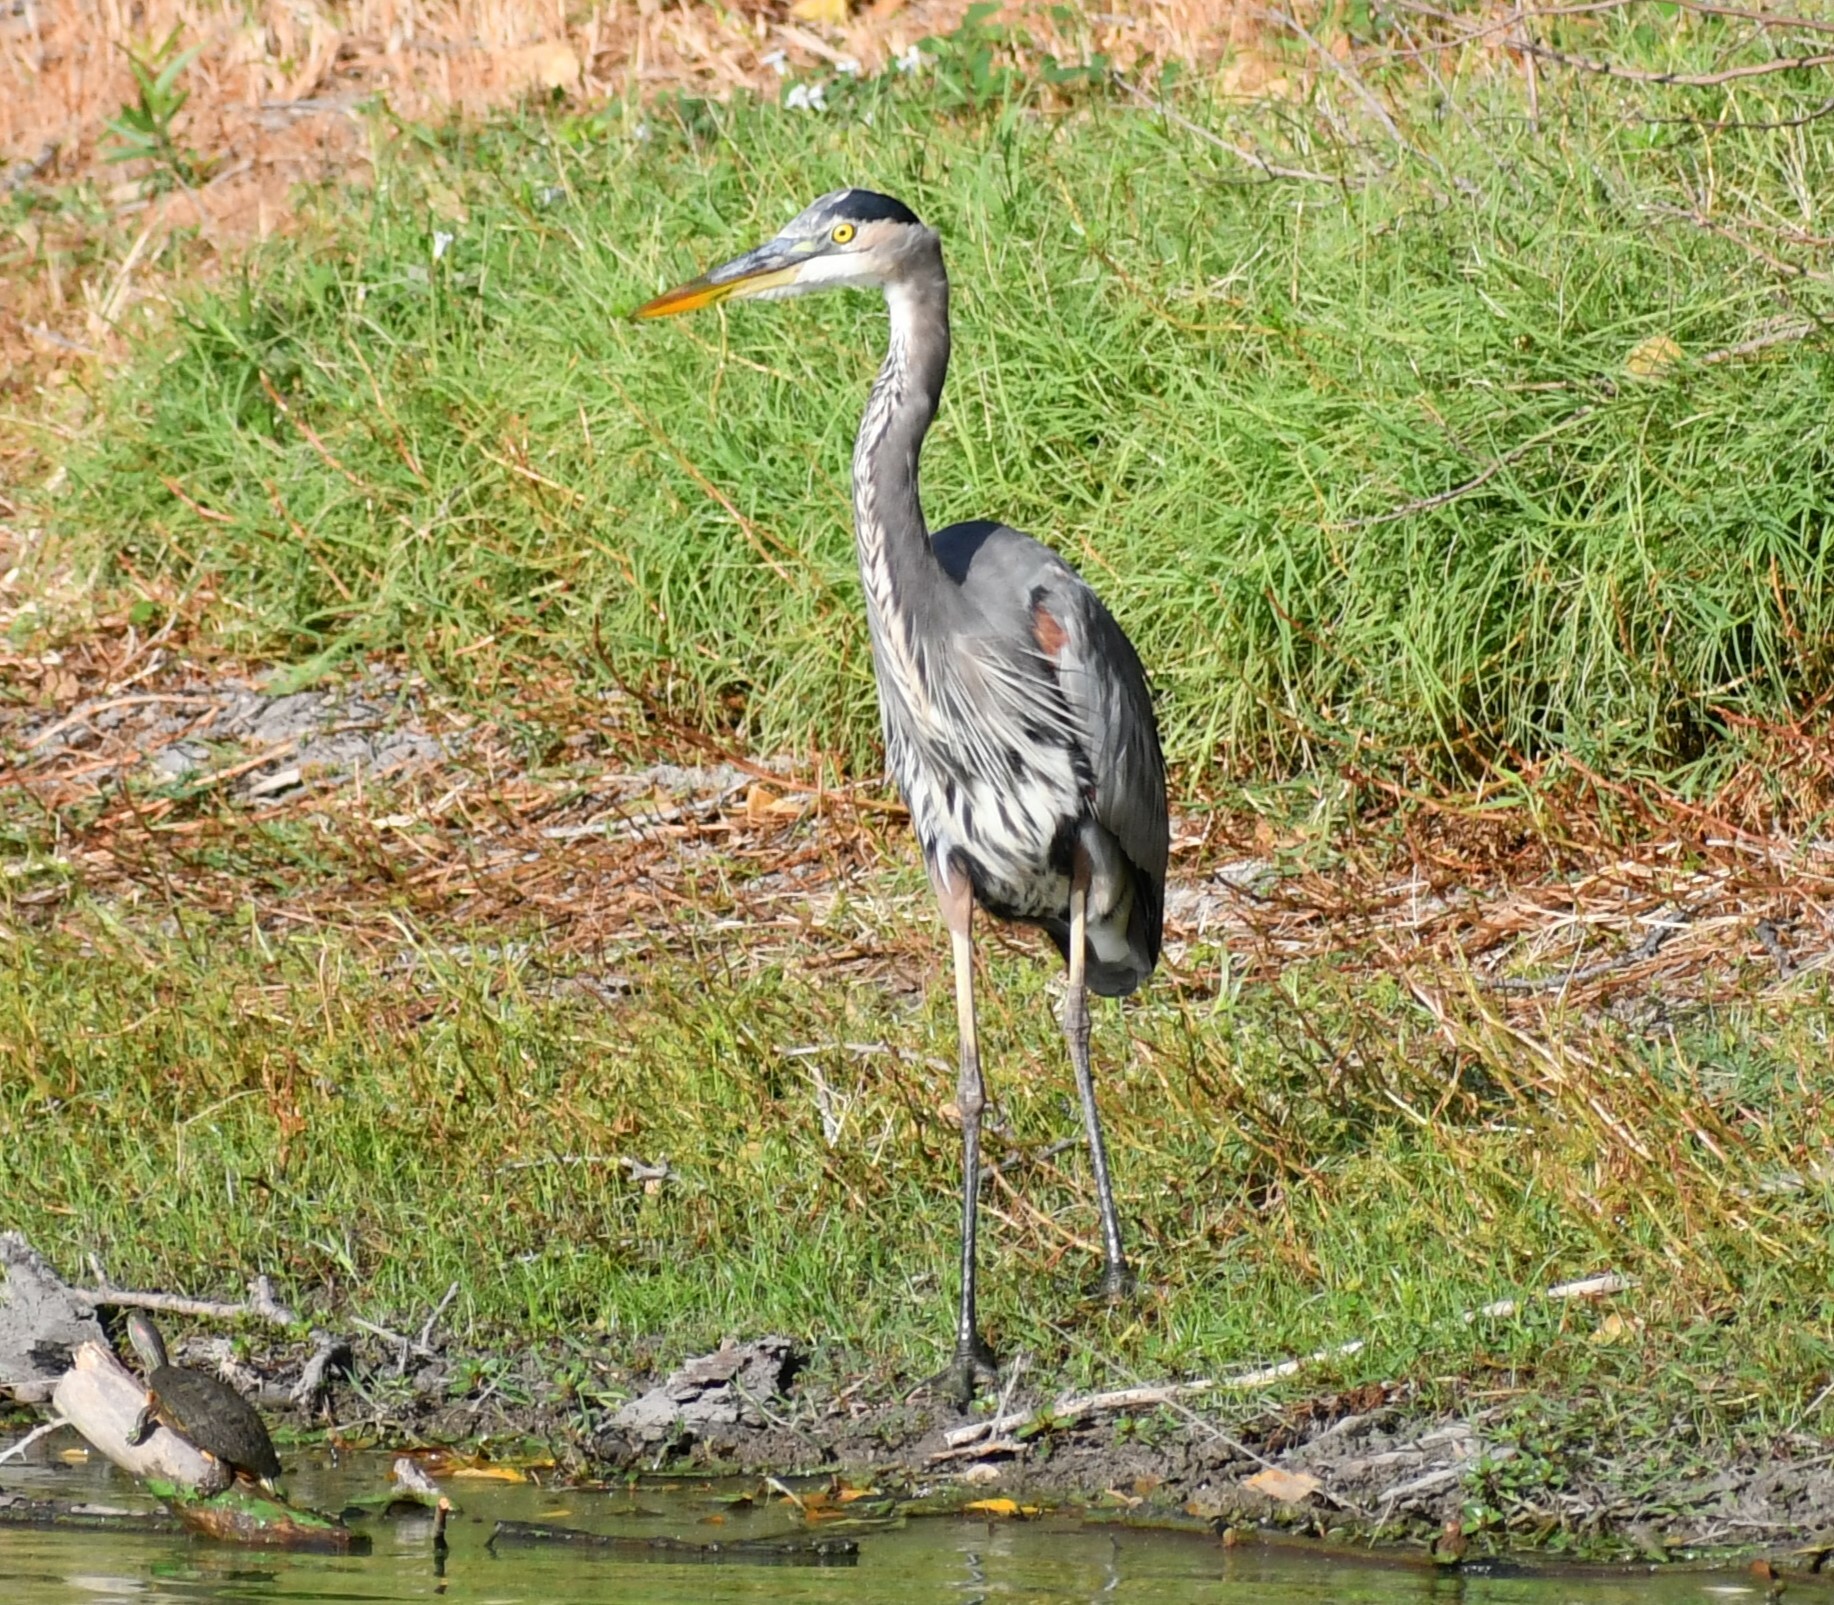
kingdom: Animalia
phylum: Chordata
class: Aves
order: Pelecaniformes
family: Ardeidae
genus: Ardea
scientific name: Ardea herodias
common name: Great blue heron
